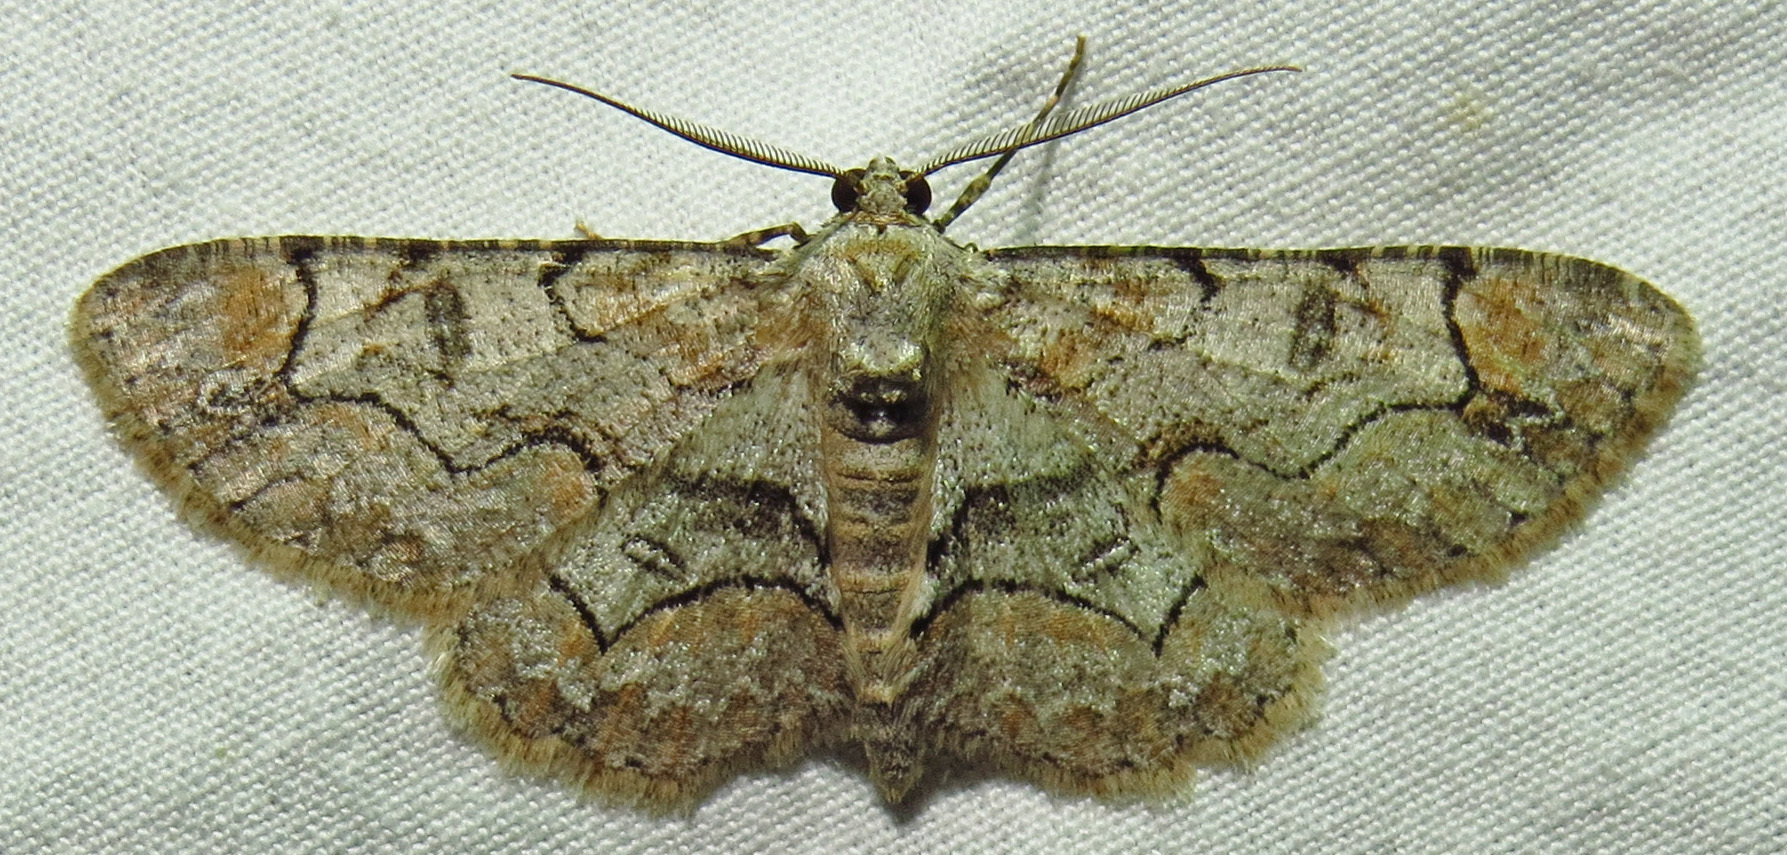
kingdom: Animalia
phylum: Arthropoda
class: Insecta
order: Lepidoptera
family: Geometridae
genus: Iridopsis
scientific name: Iridopsis defectaria
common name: Brown-shaded gray
